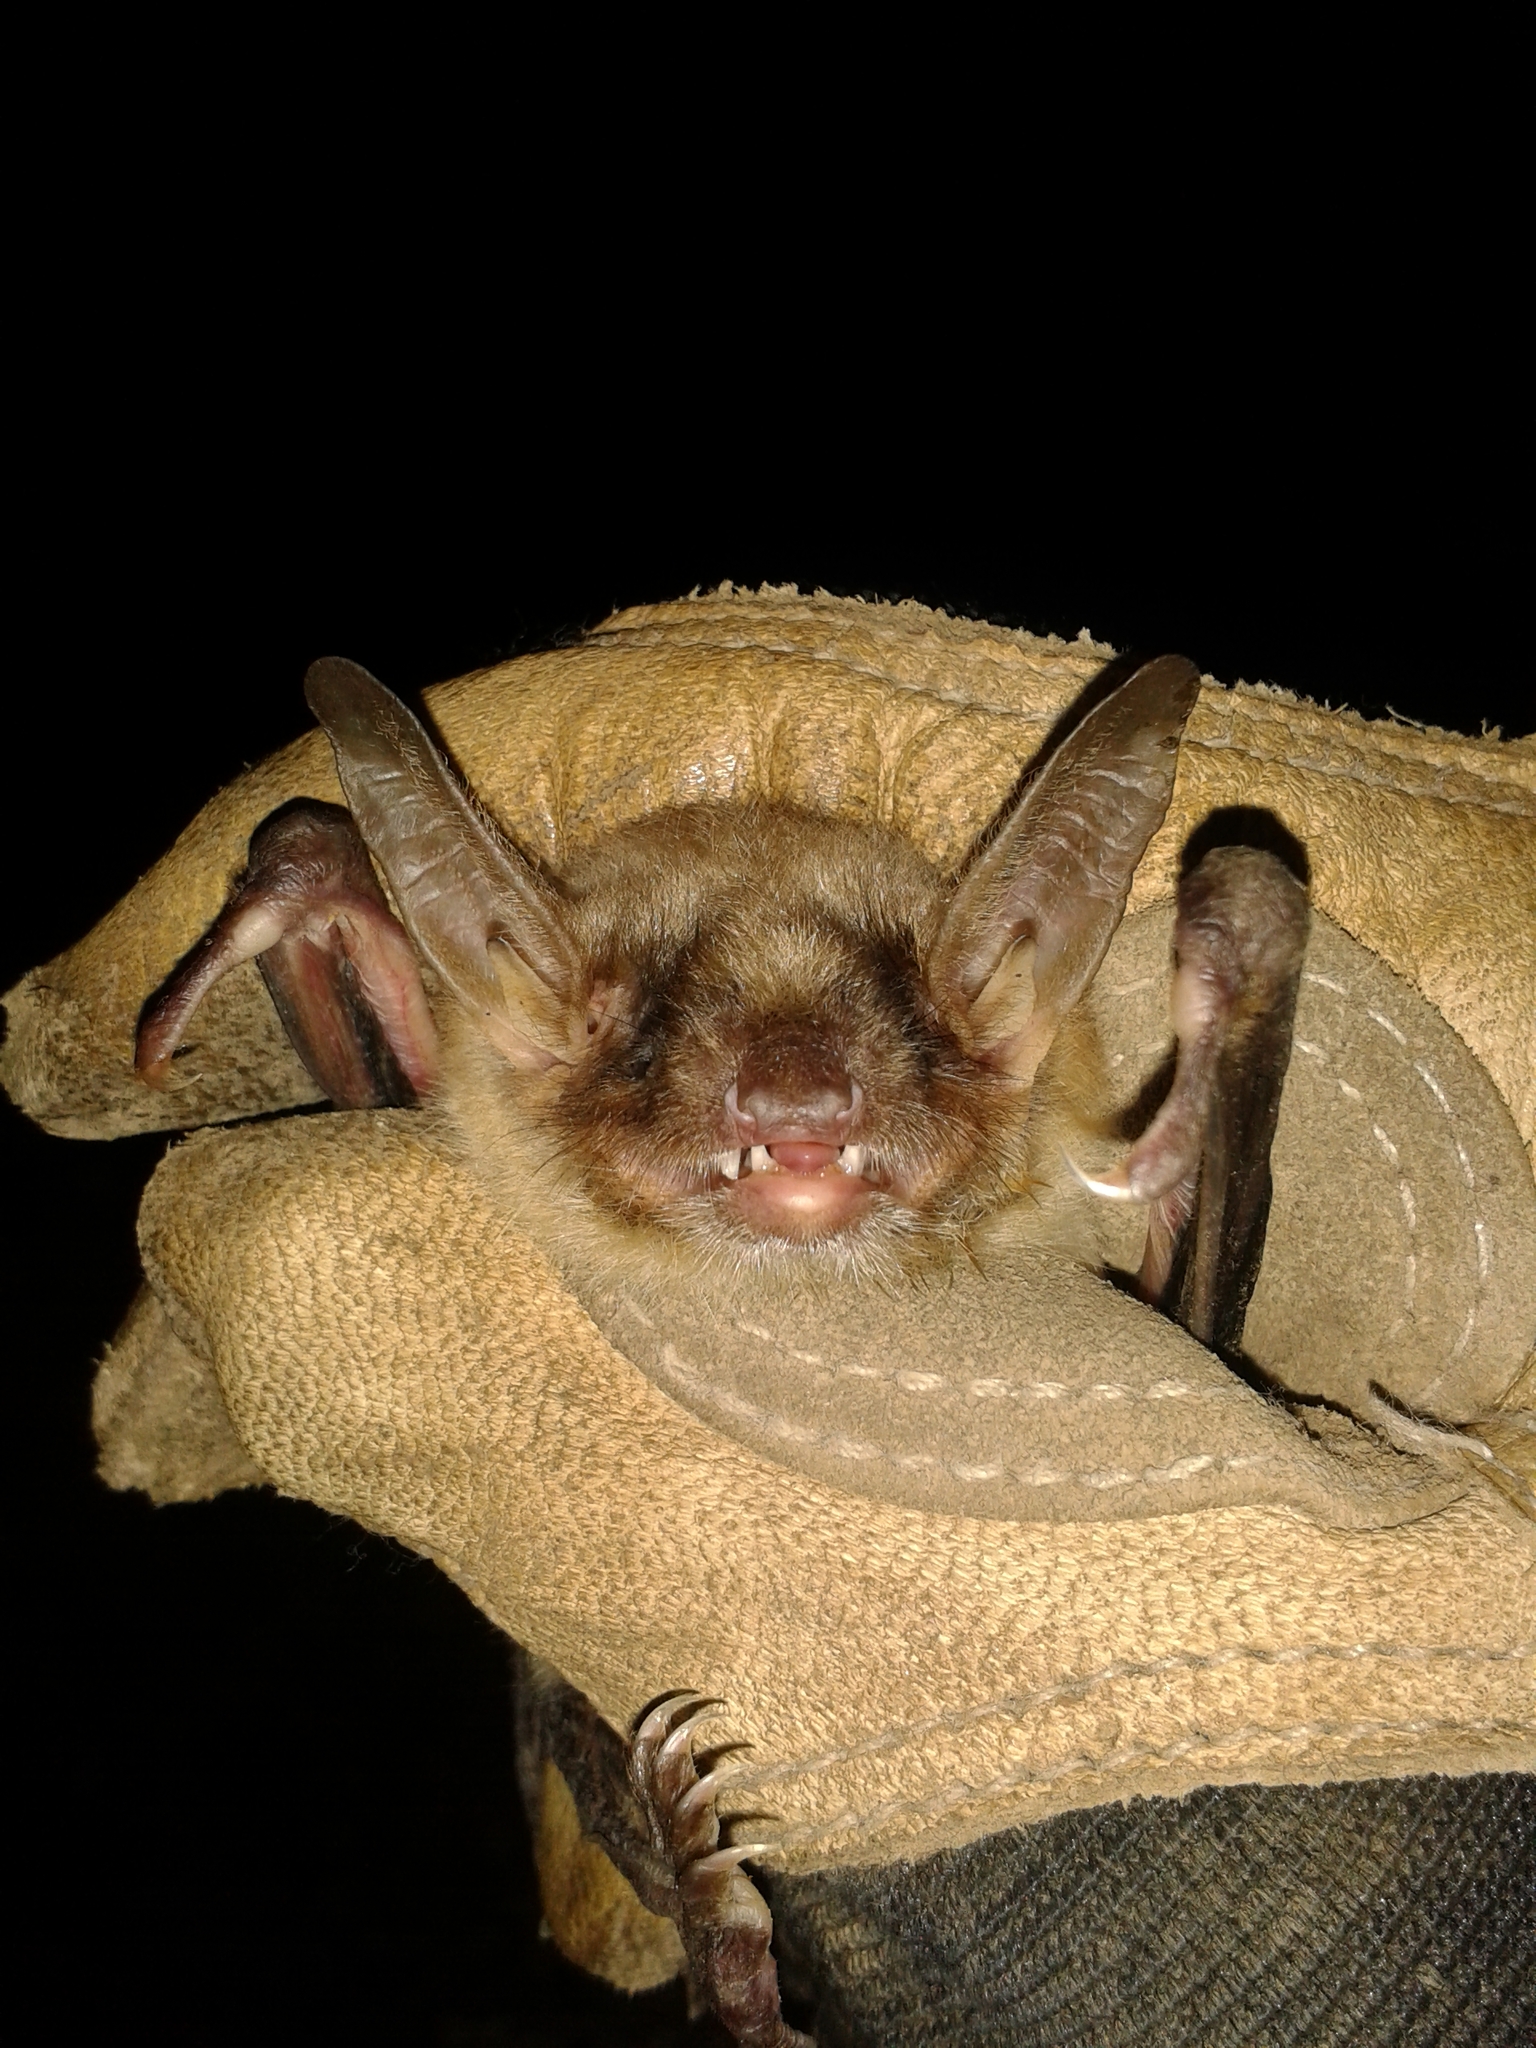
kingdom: Animalia
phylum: Chordata
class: Mammalia
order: Chiroptera
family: Vespertilionidae
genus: Myotis
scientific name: Myotis myotis
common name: Greater mouse-eared bat
